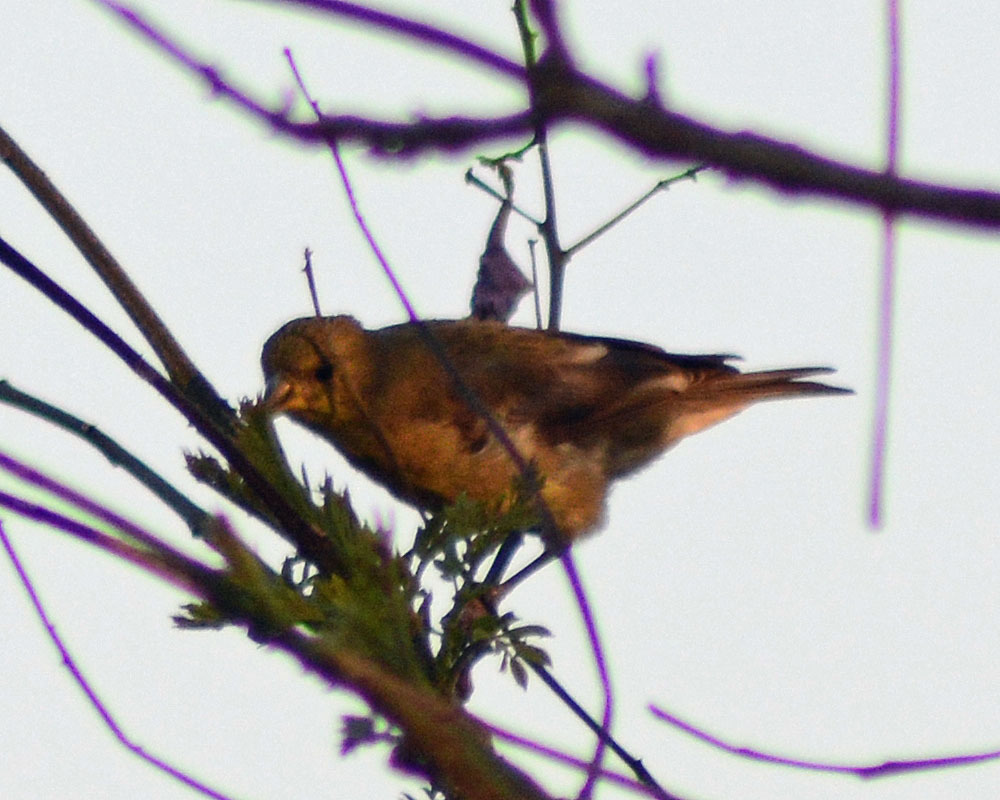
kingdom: Animalia
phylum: Chordata
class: Aves
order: Passeriformes
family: Fringillidae
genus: Spinus
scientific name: Spinus psaltria
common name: Lesser goldfinch
